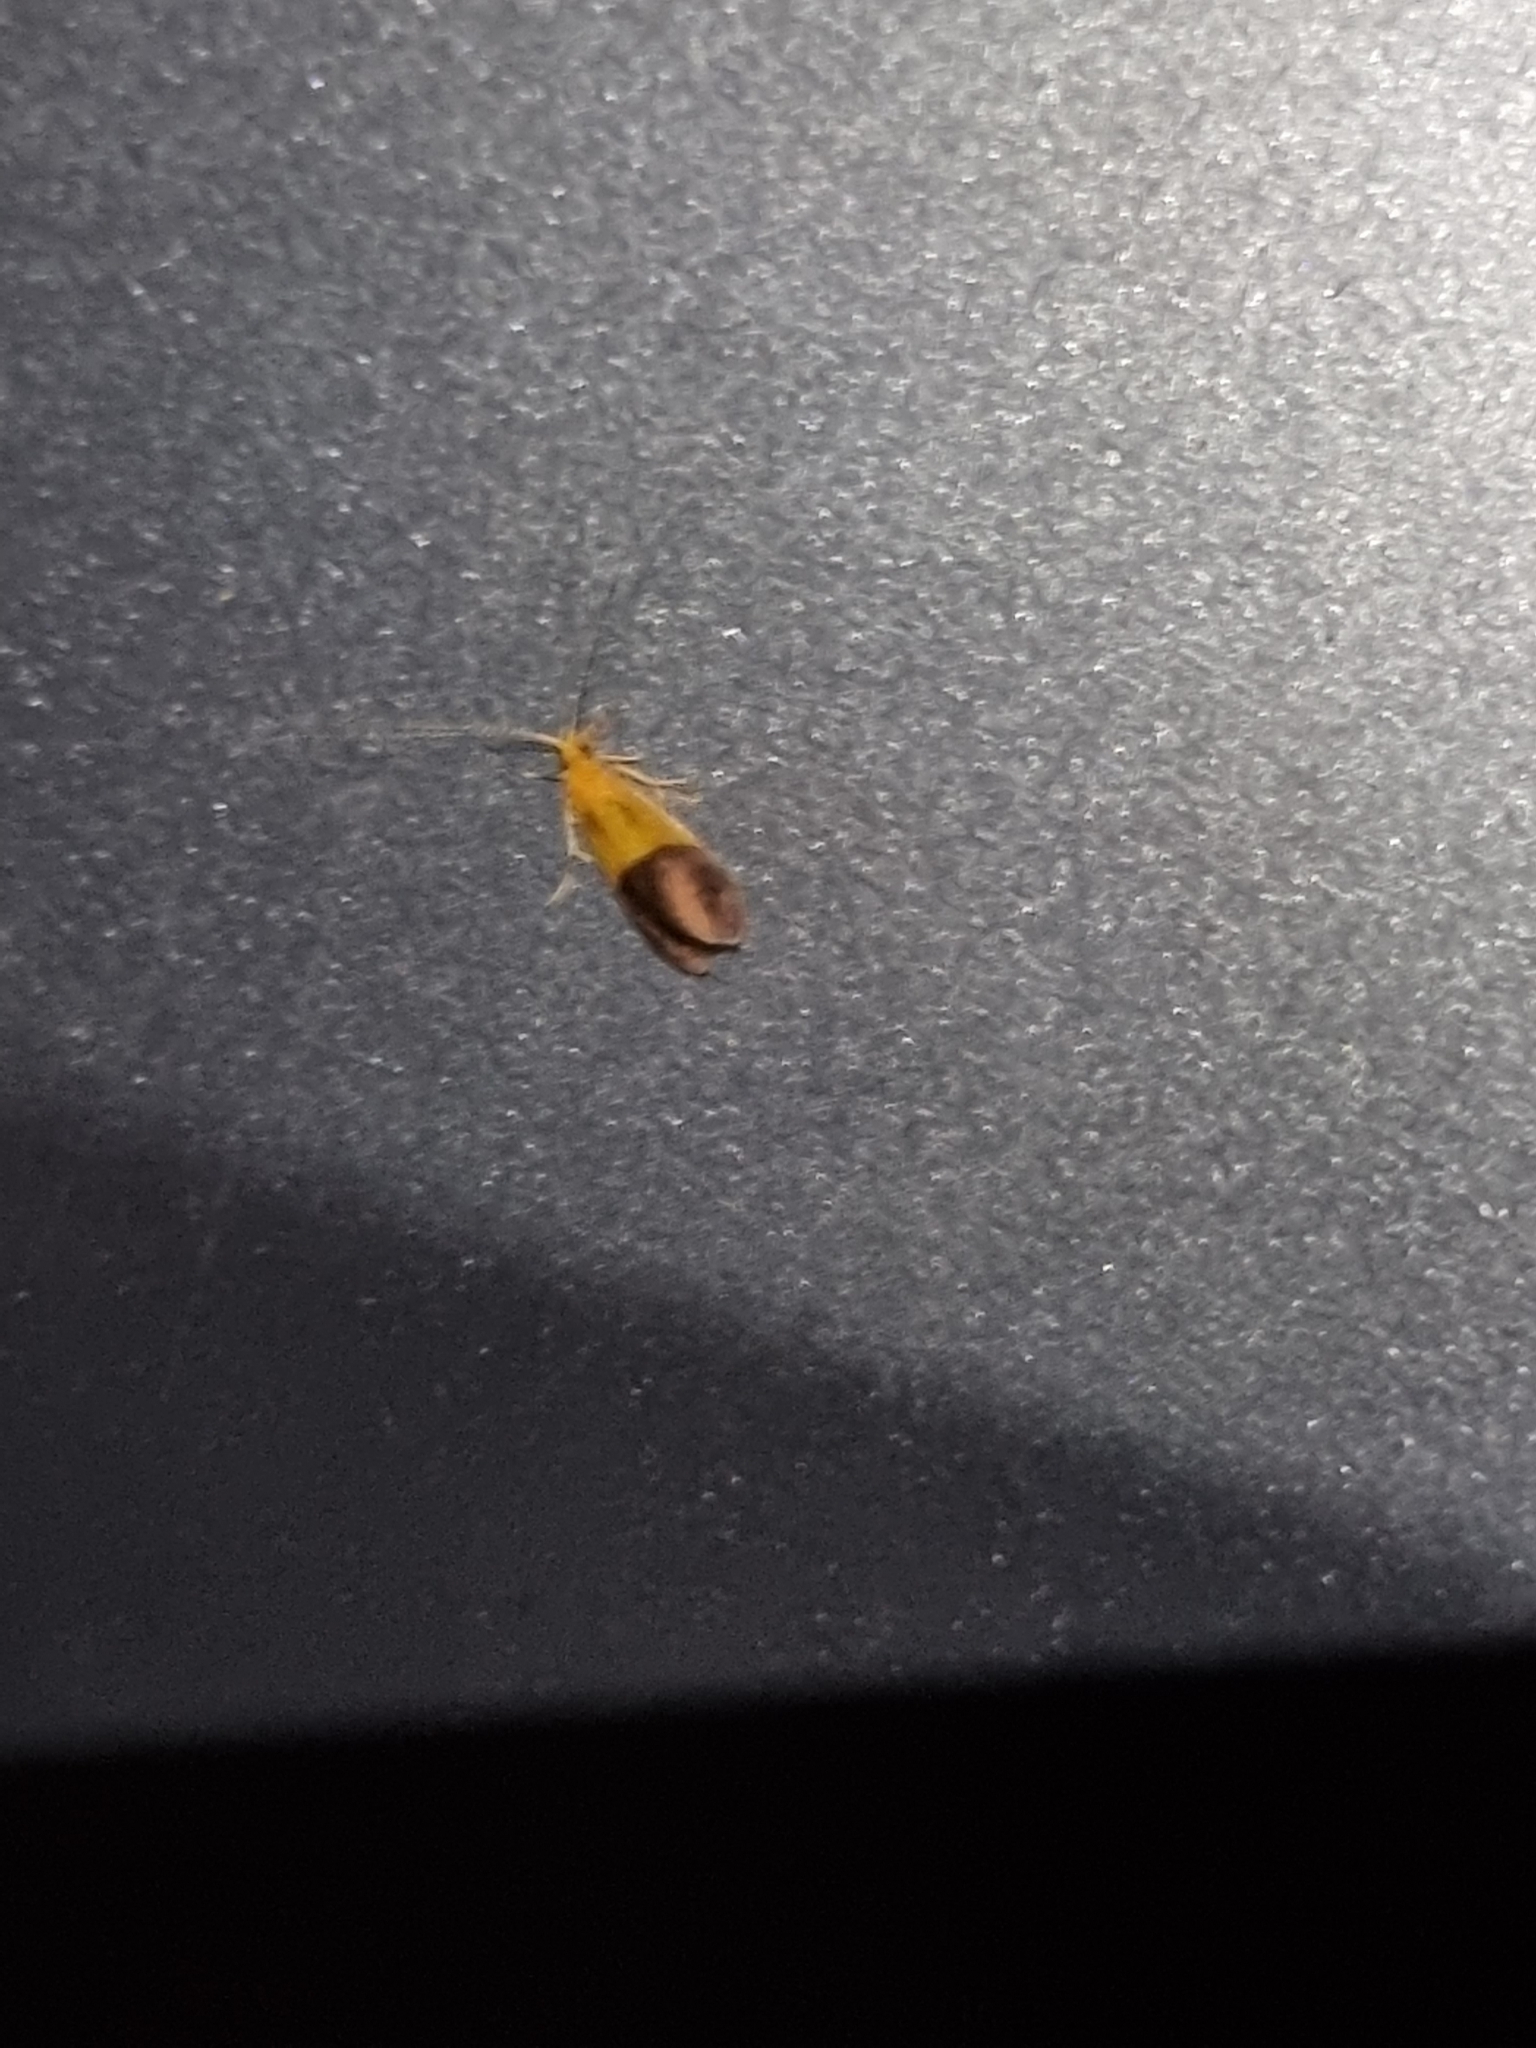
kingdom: Animalia
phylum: Arthropoda
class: Insecta
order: Trichoptera
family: Calamoceratidae
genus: Anisocentropus
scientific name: Anisocentropus bicoloratus
